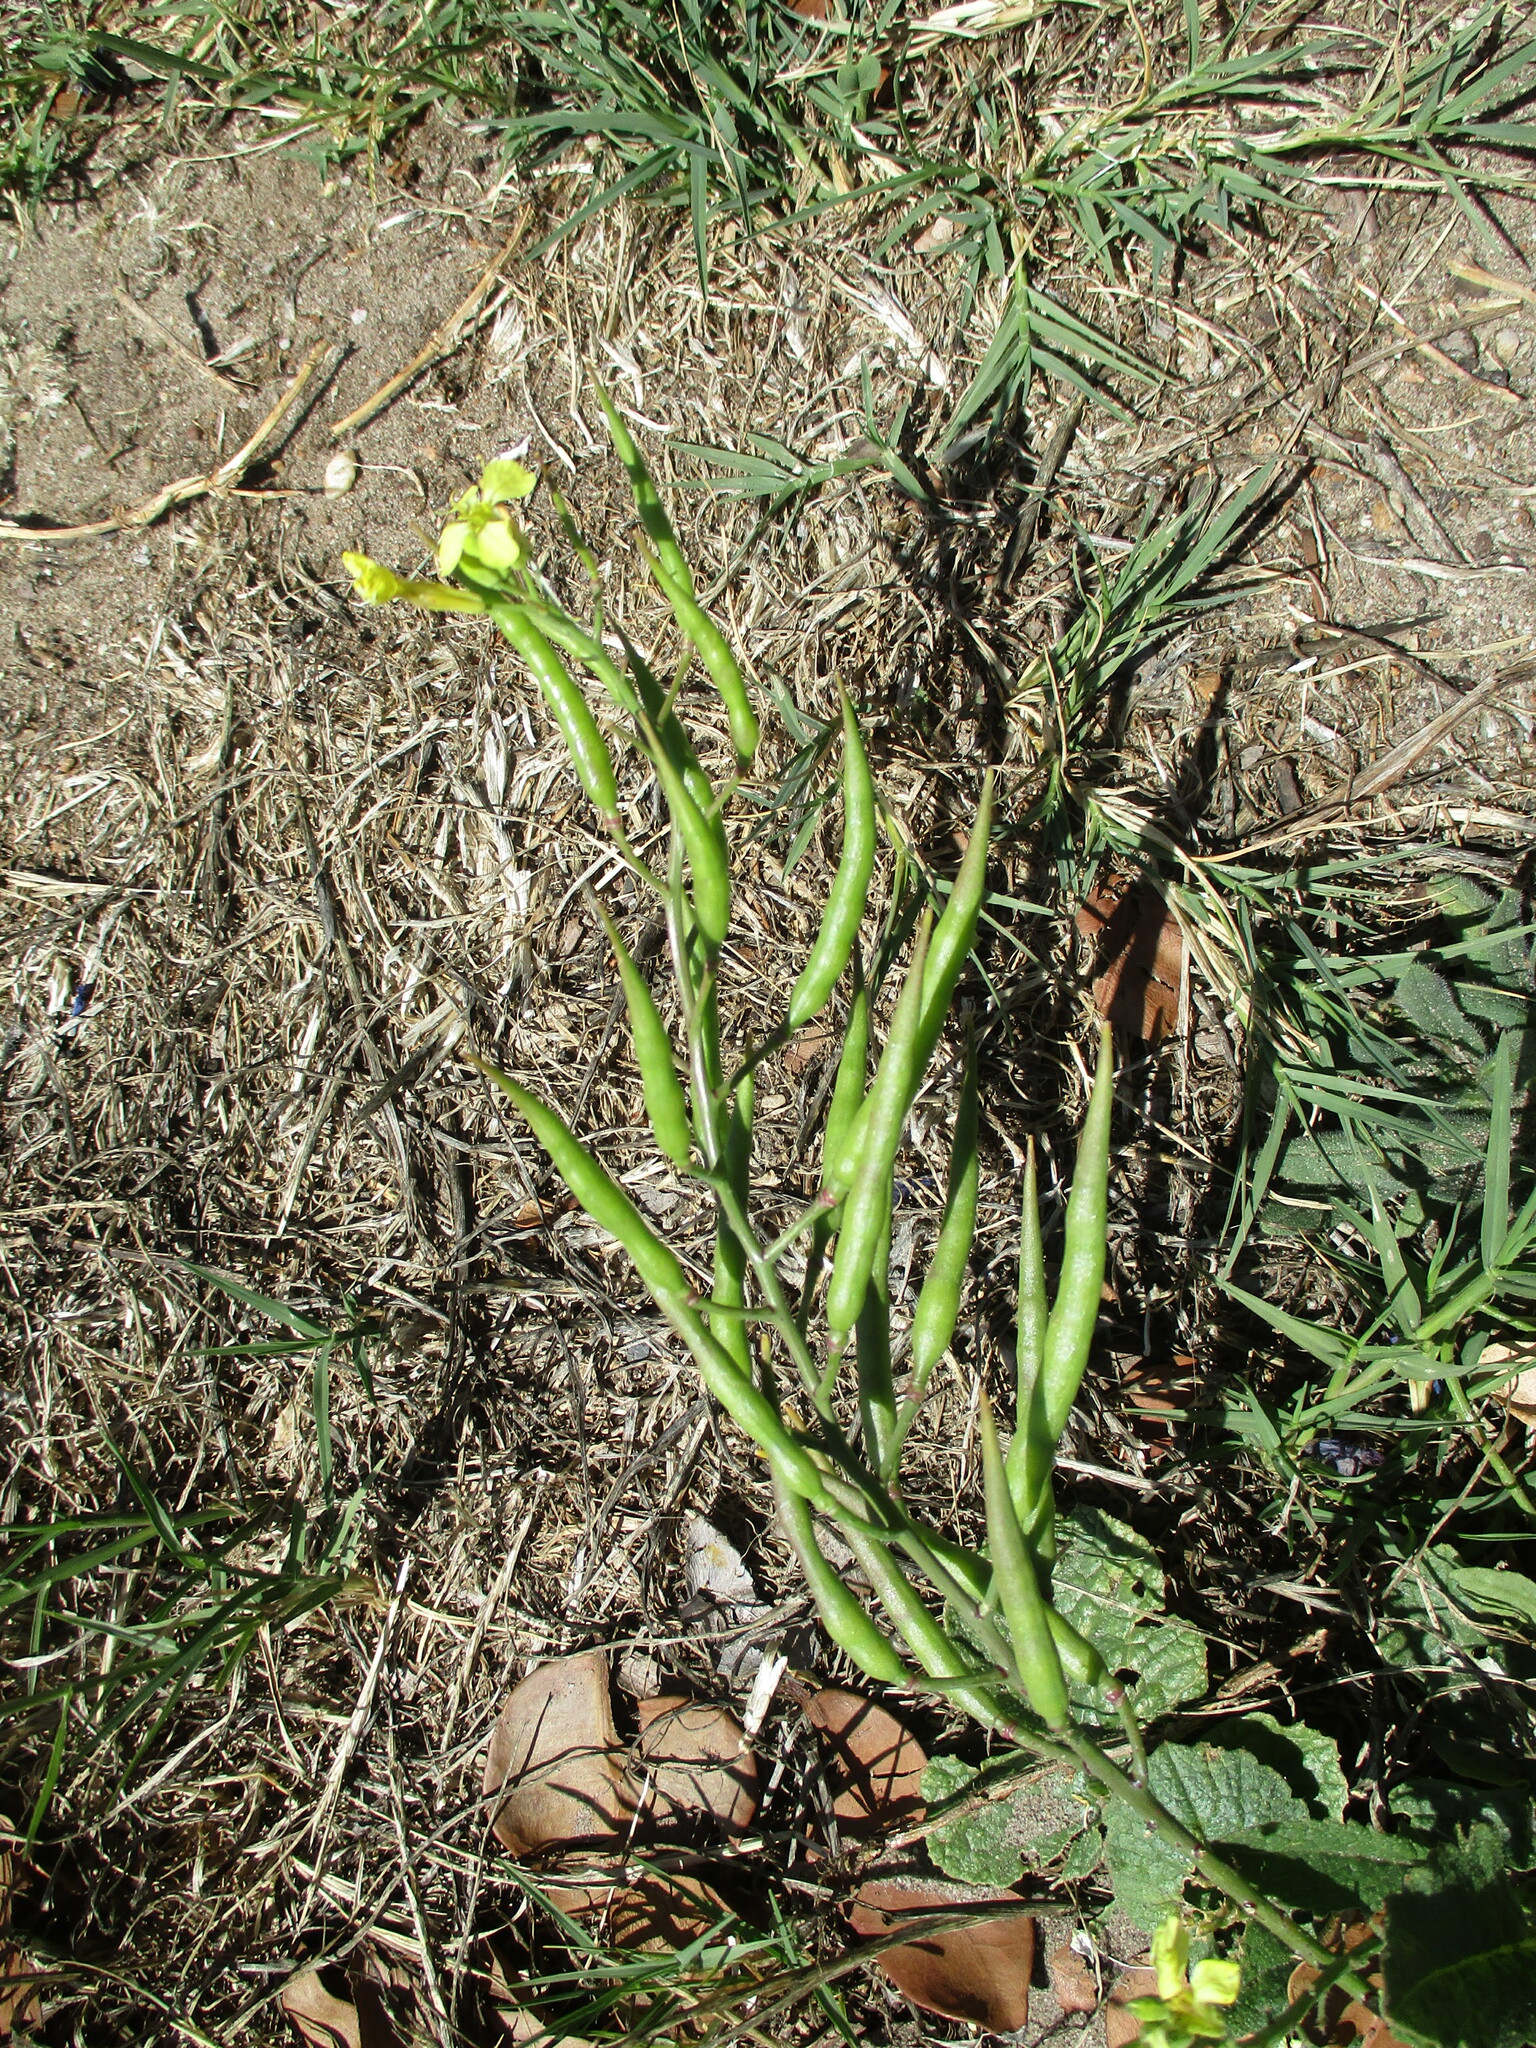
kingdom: Plantae
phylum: Tracheophyta
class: Magnoliopsida
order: Brassicales
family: Brassicaceae
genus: Raphanus
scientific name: Raphanus raphanistrum
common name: Wild radish
